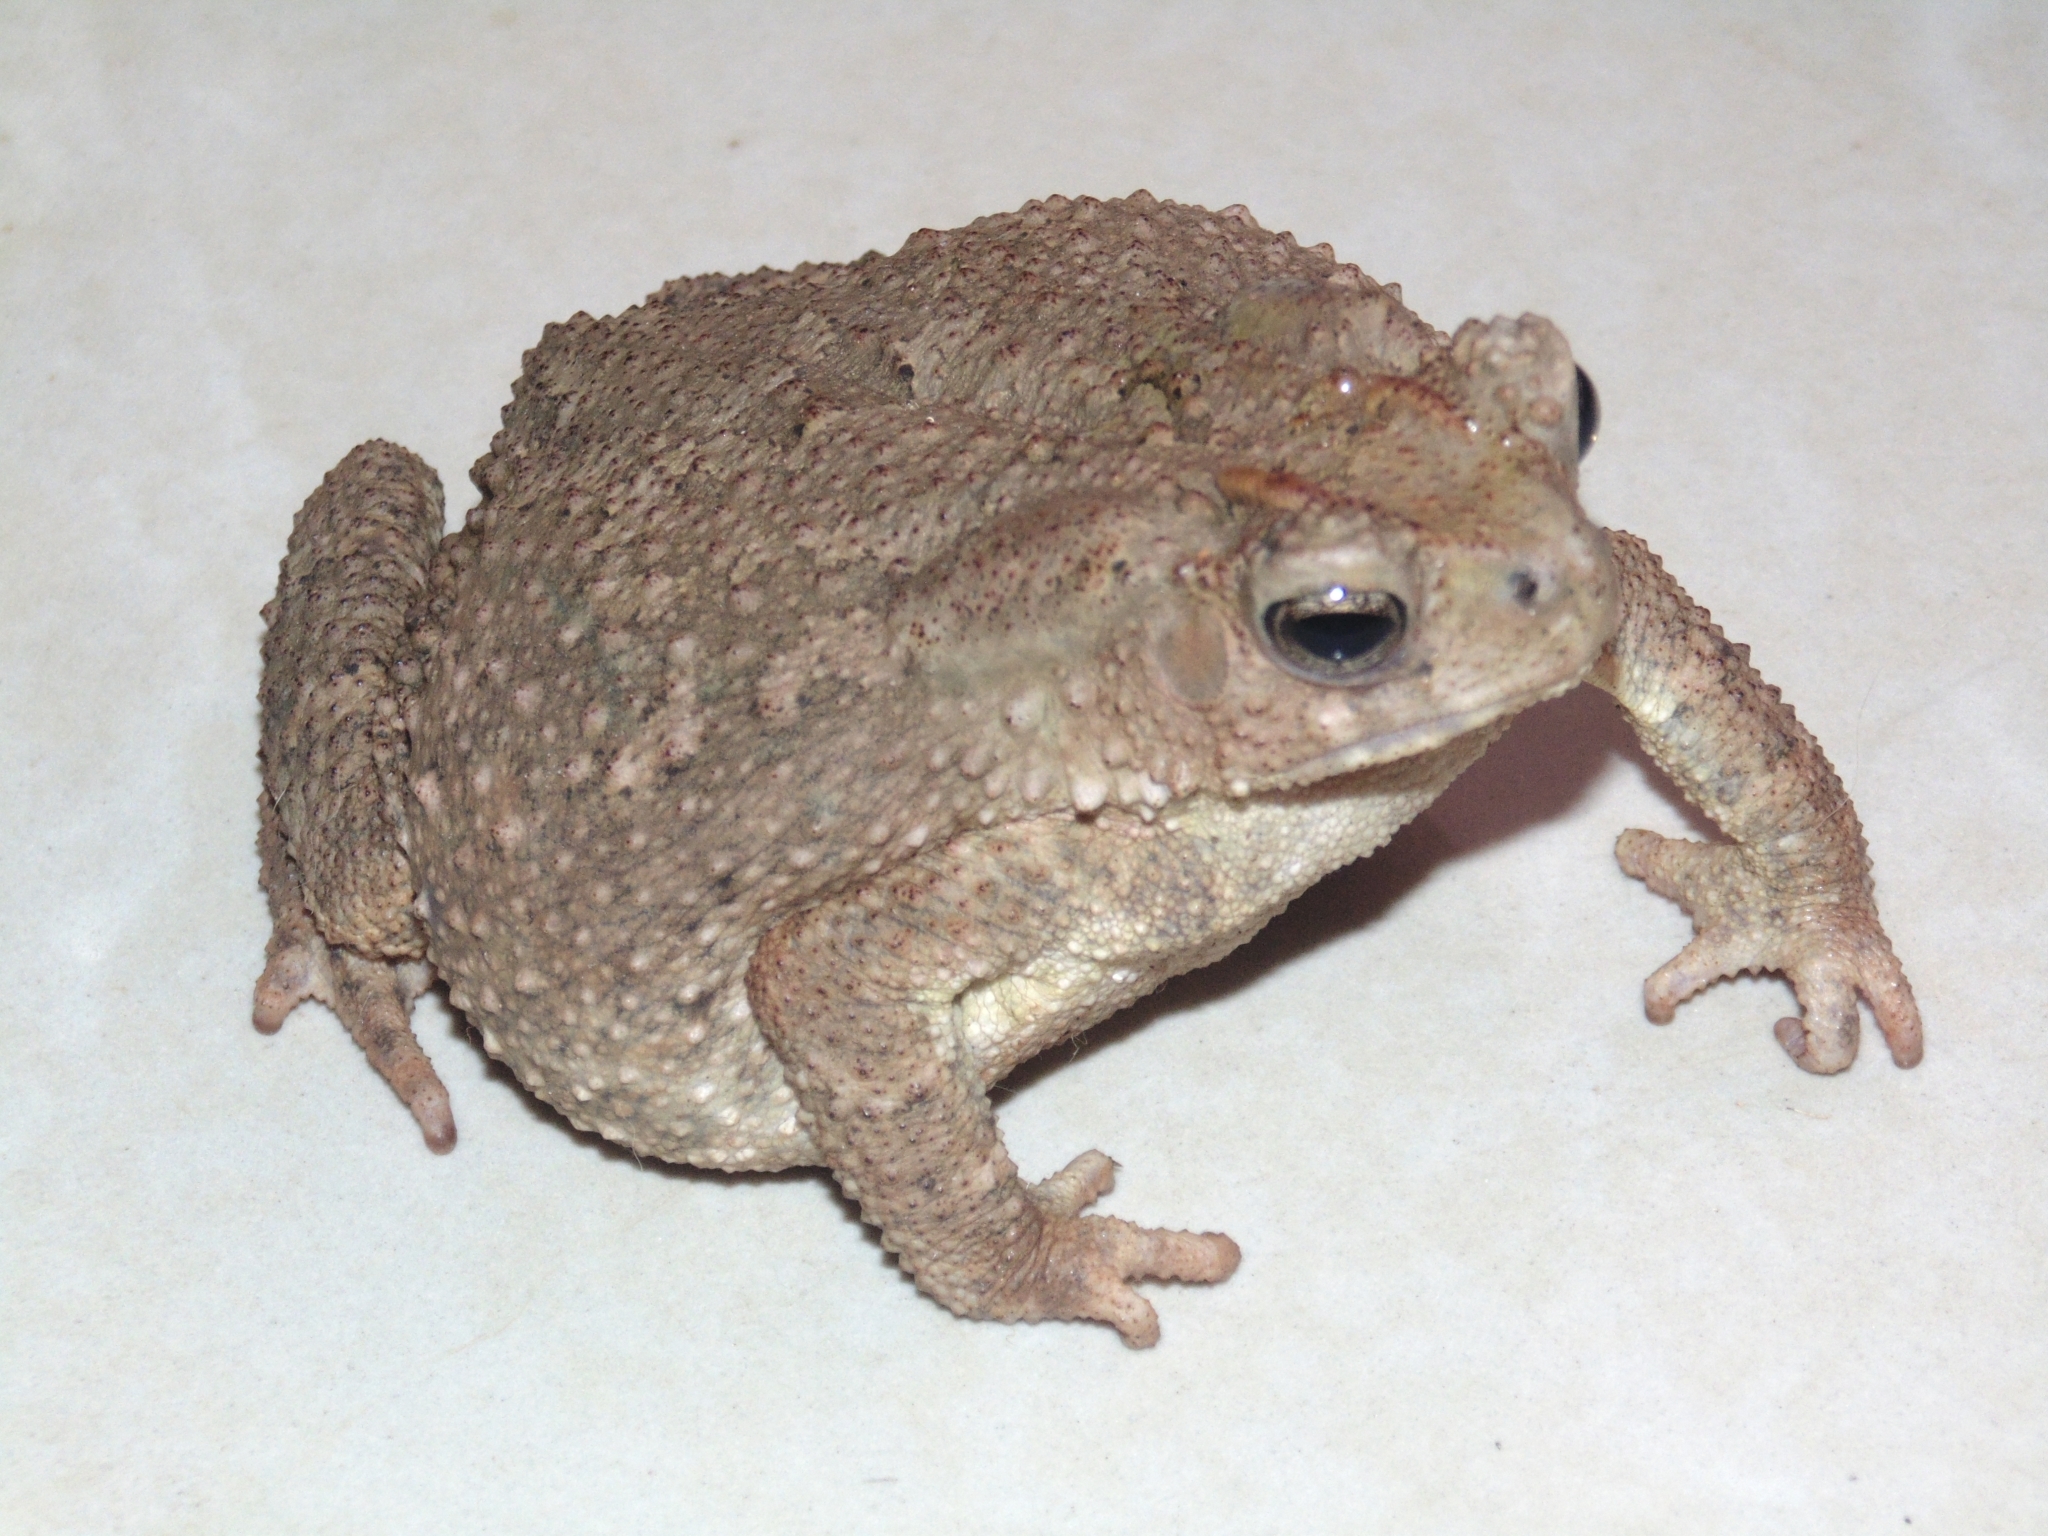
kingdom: Animalia
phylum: Chordata
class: Amphibia
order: Anura
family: Bufonidae
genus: Ingerophrynus
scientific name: Ingerophrynus philippinicus
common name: Philippine toad
